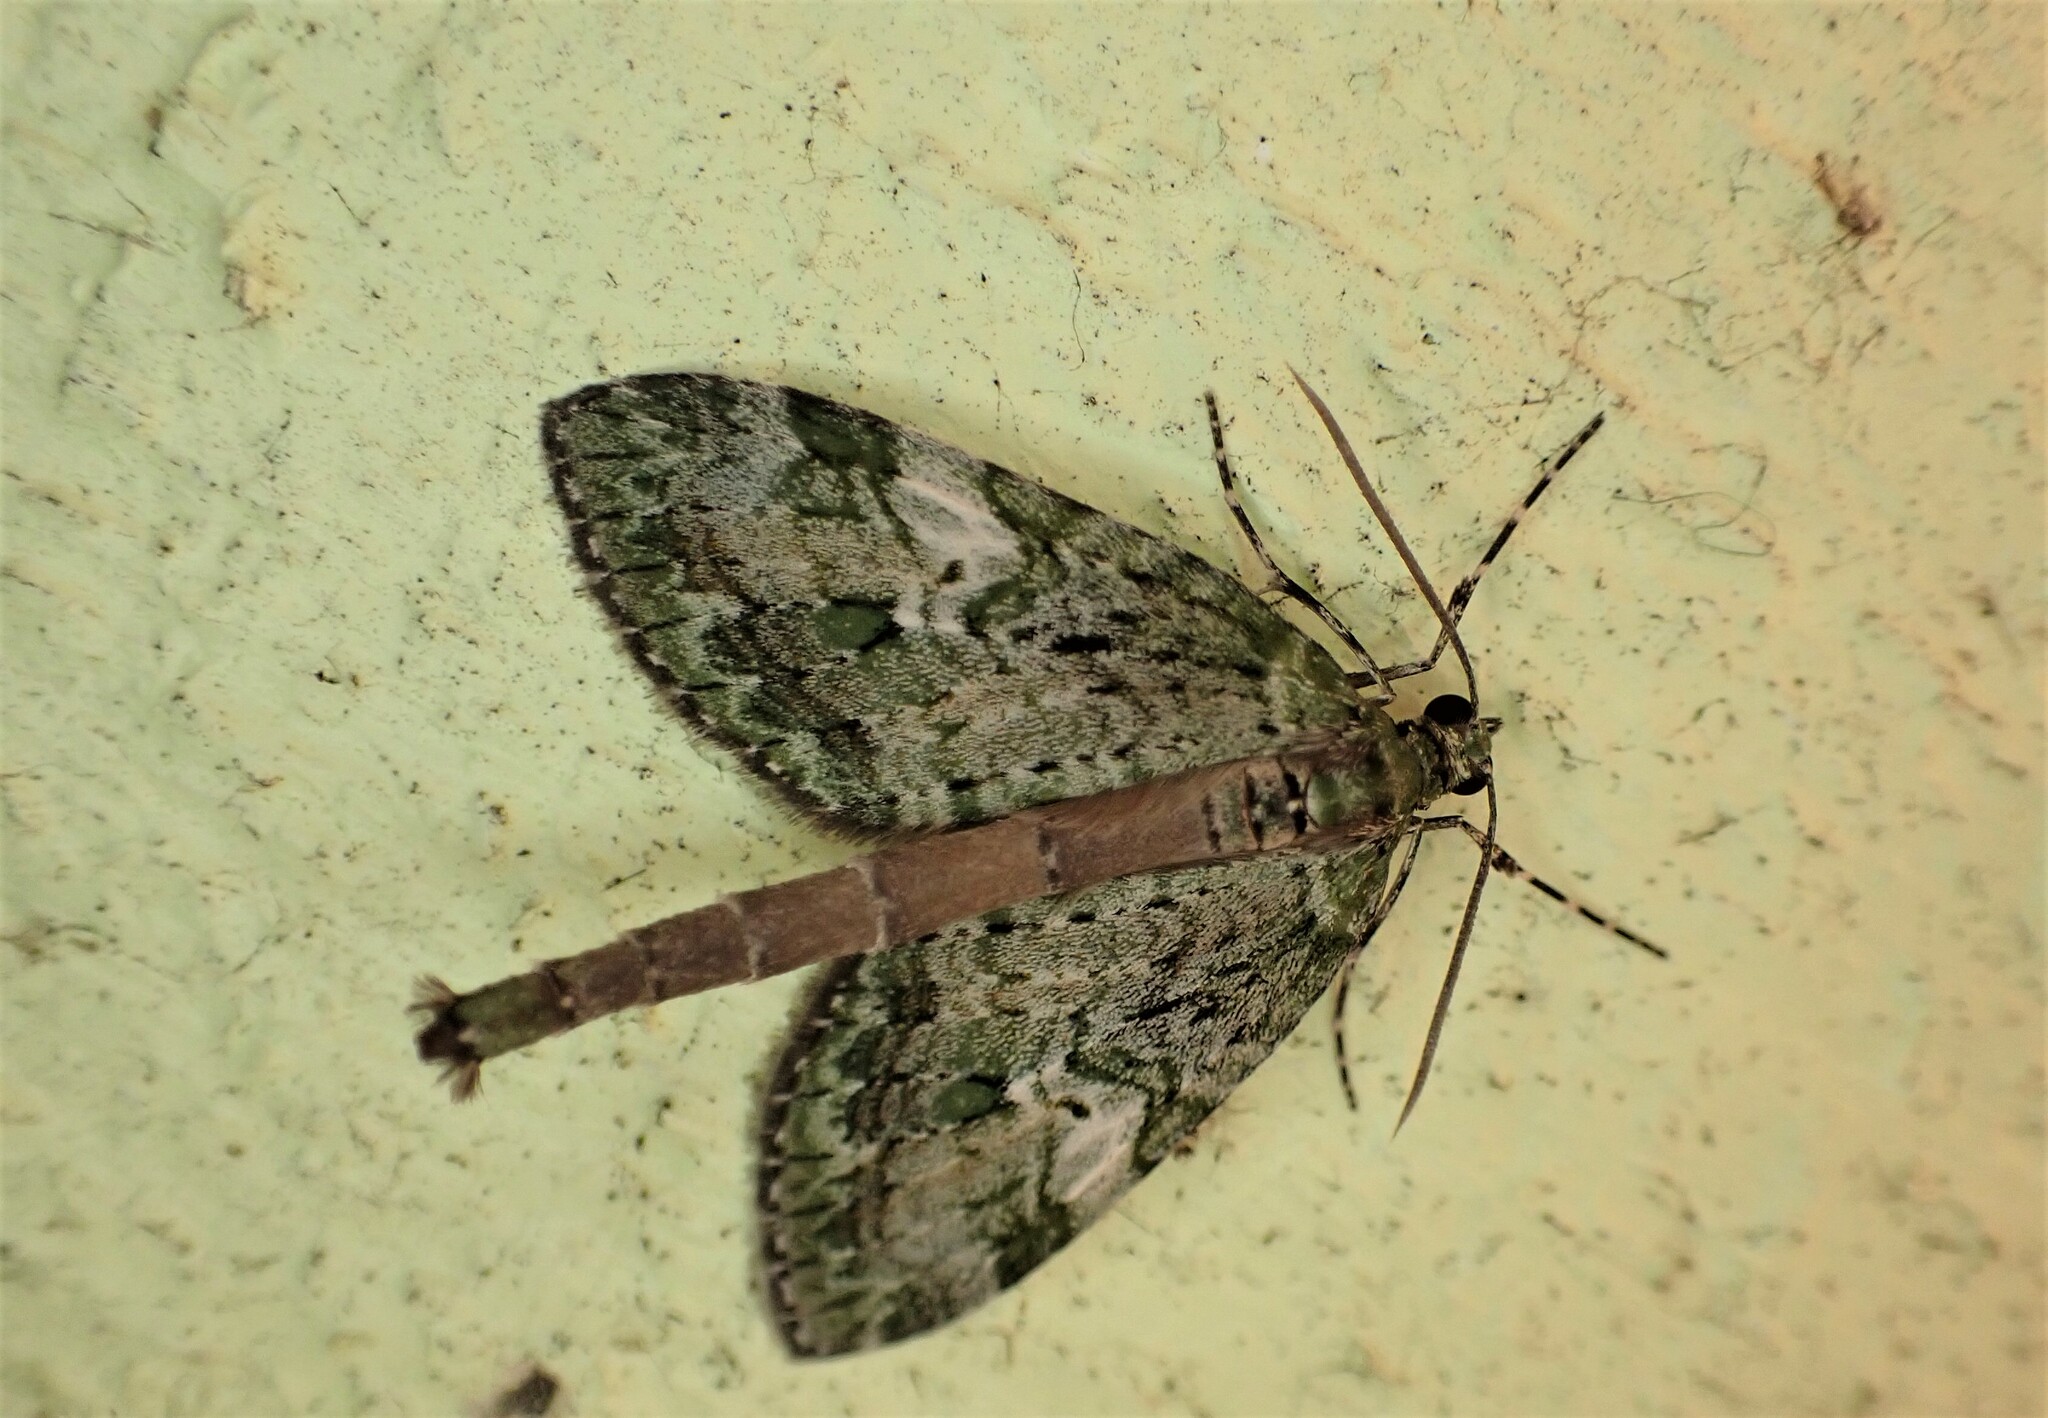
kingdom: Animalia
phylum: Arthropoda
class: Insecta
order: Lepidoptera
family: Geometridae
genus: Tatosoma
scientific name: Tatosoma topea
